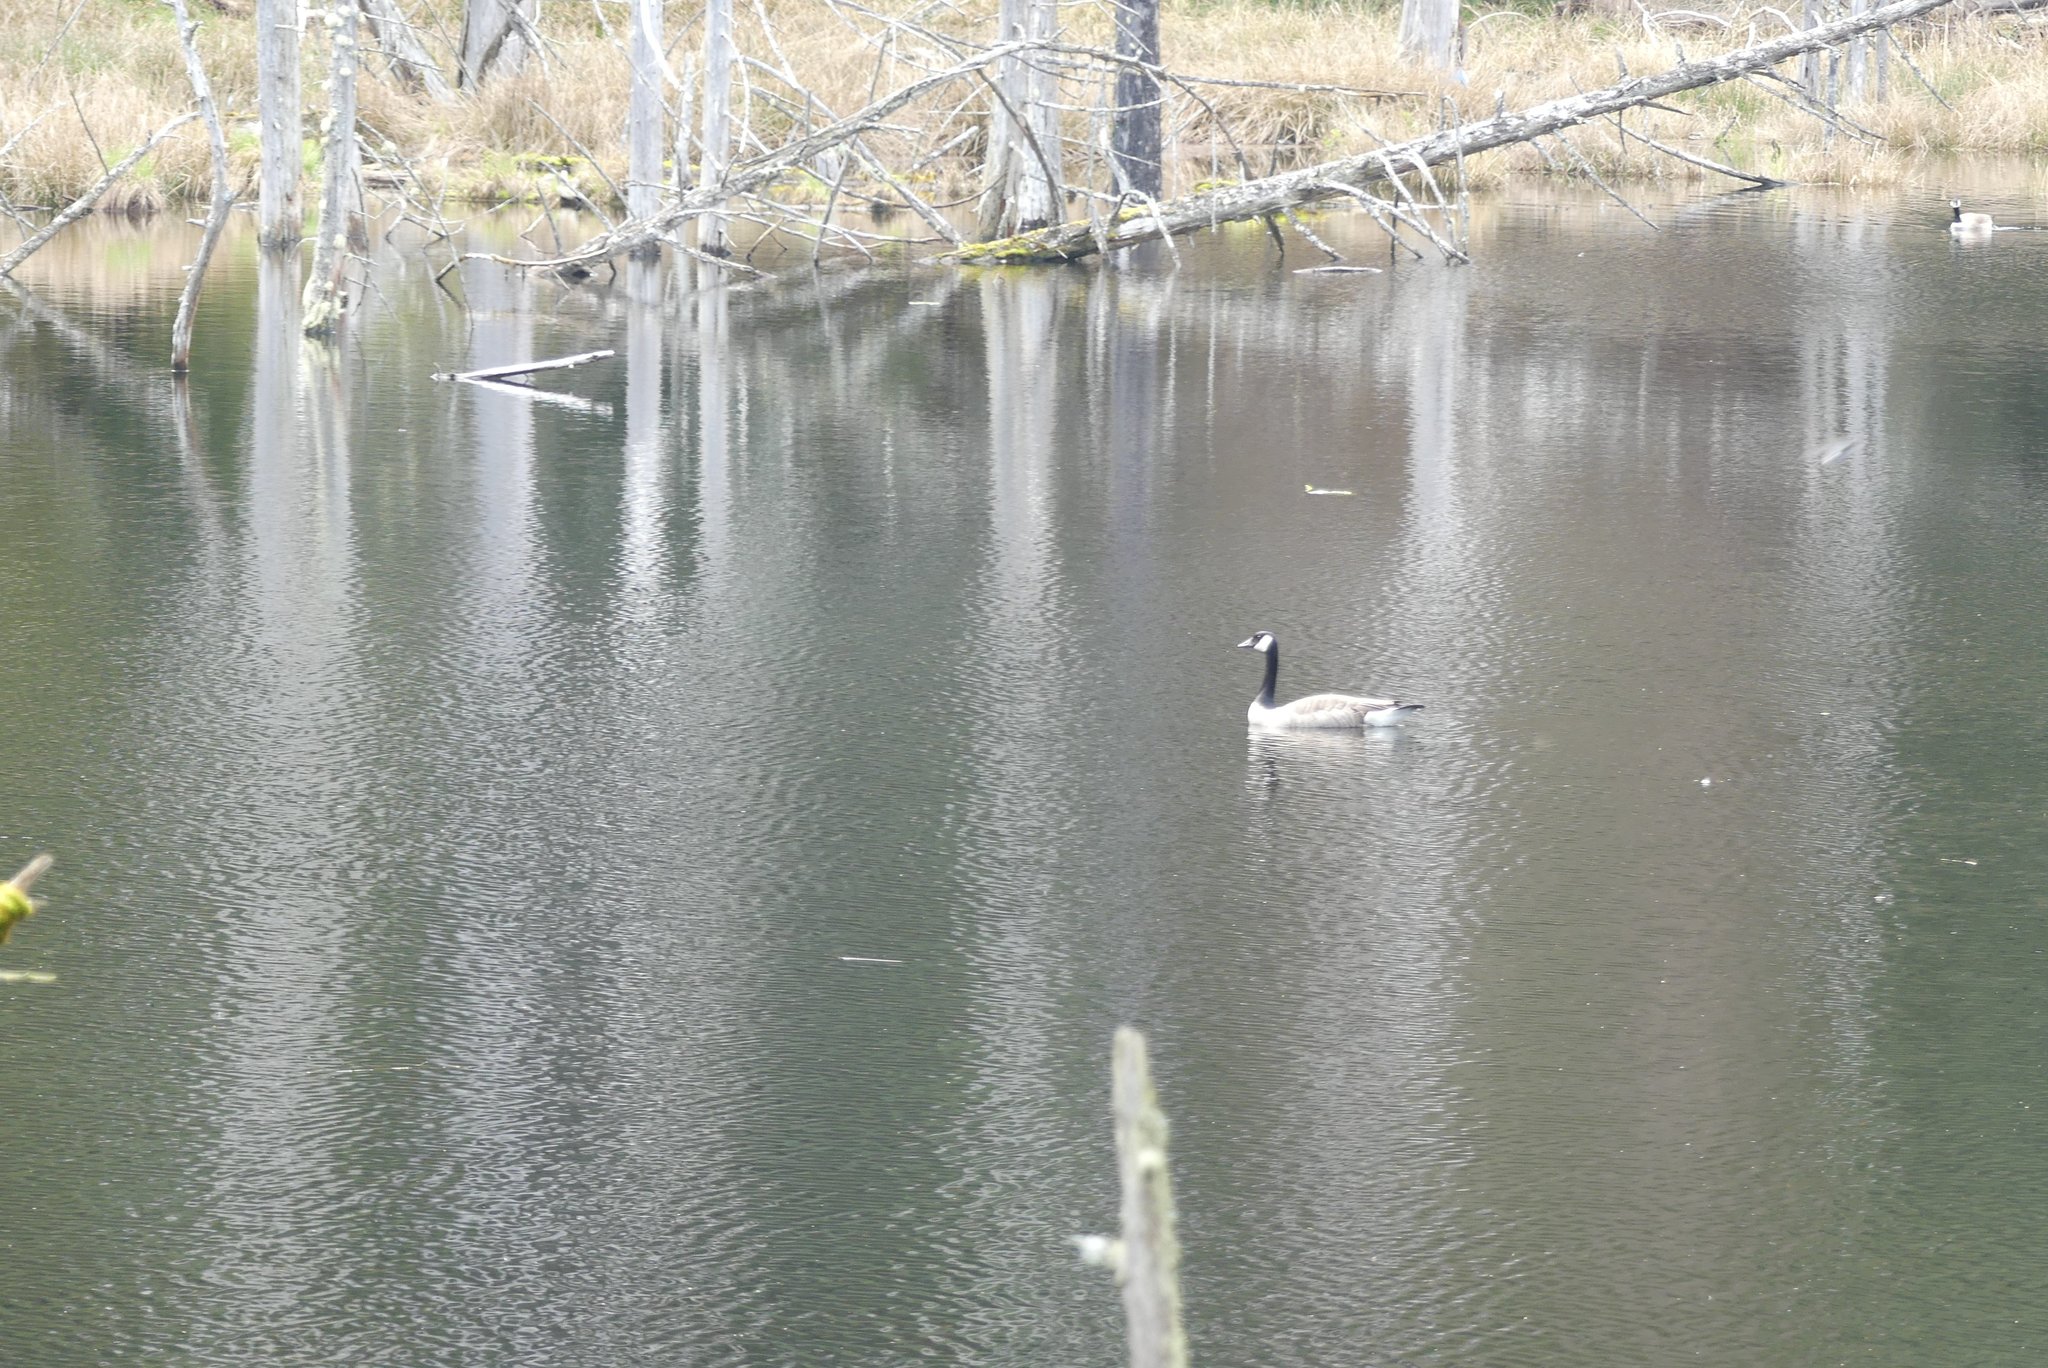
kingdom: Animalia
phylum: Chordata
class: Aves
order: Anseriformes
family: Anatidae
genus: Branta
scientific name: Branta canadensis
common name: Canada goose
